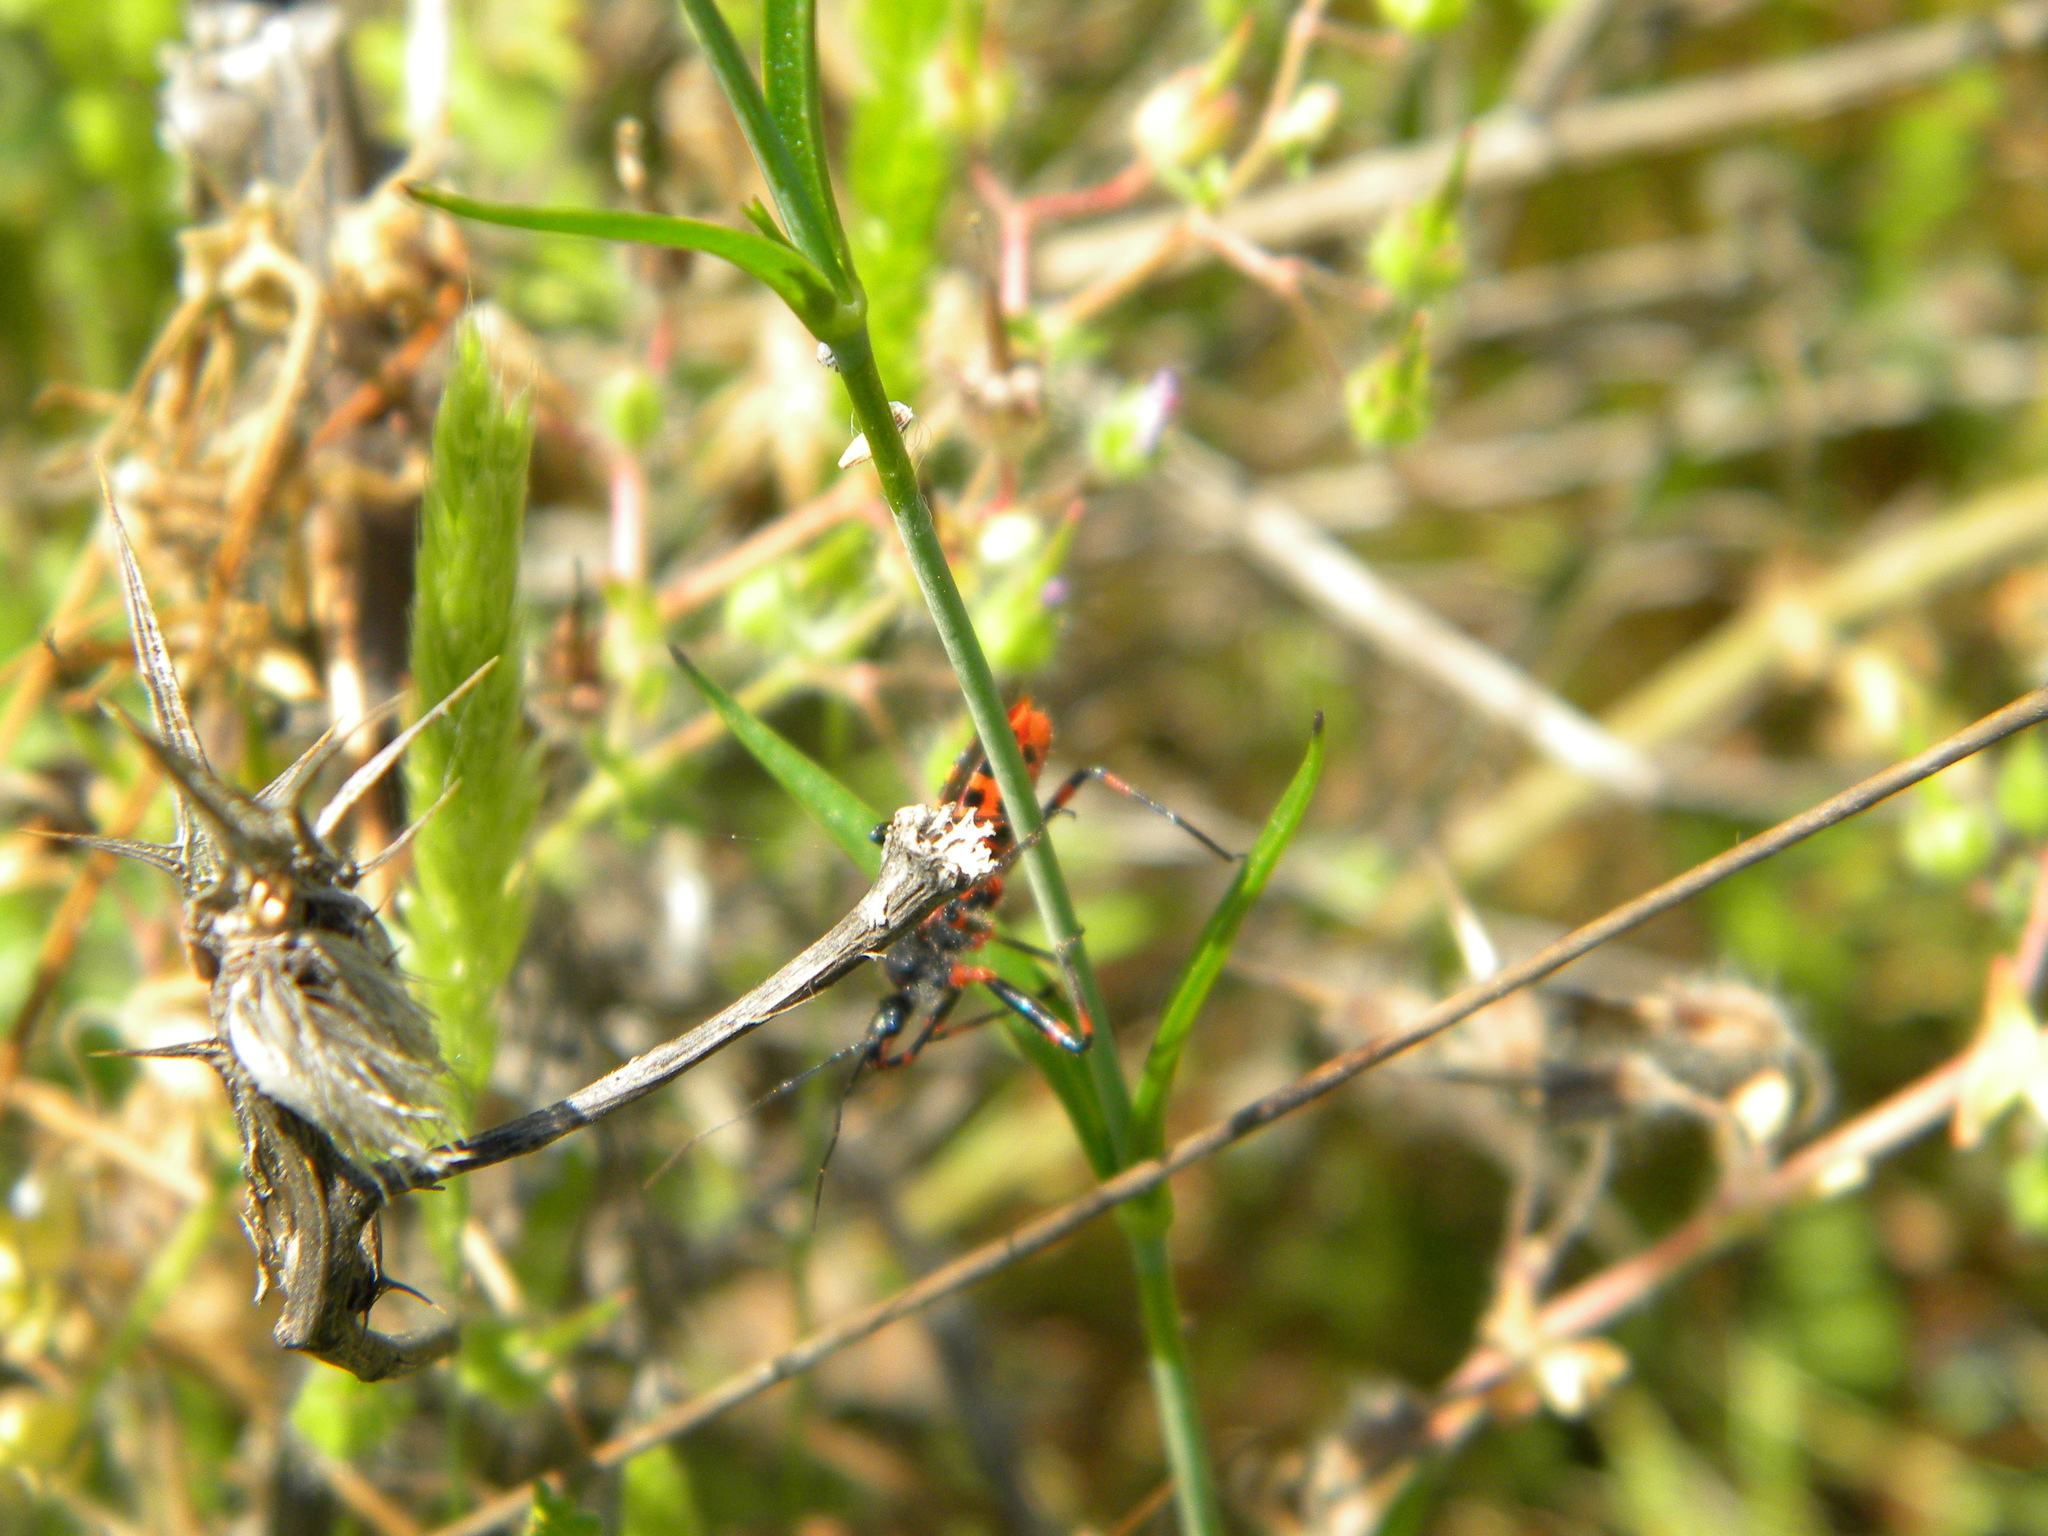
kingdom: Animalia
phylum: Arthropoda
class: Insecta
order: Hemiptera
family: Reduviidae
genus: Rhynocoris
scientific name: Rhynocoris
